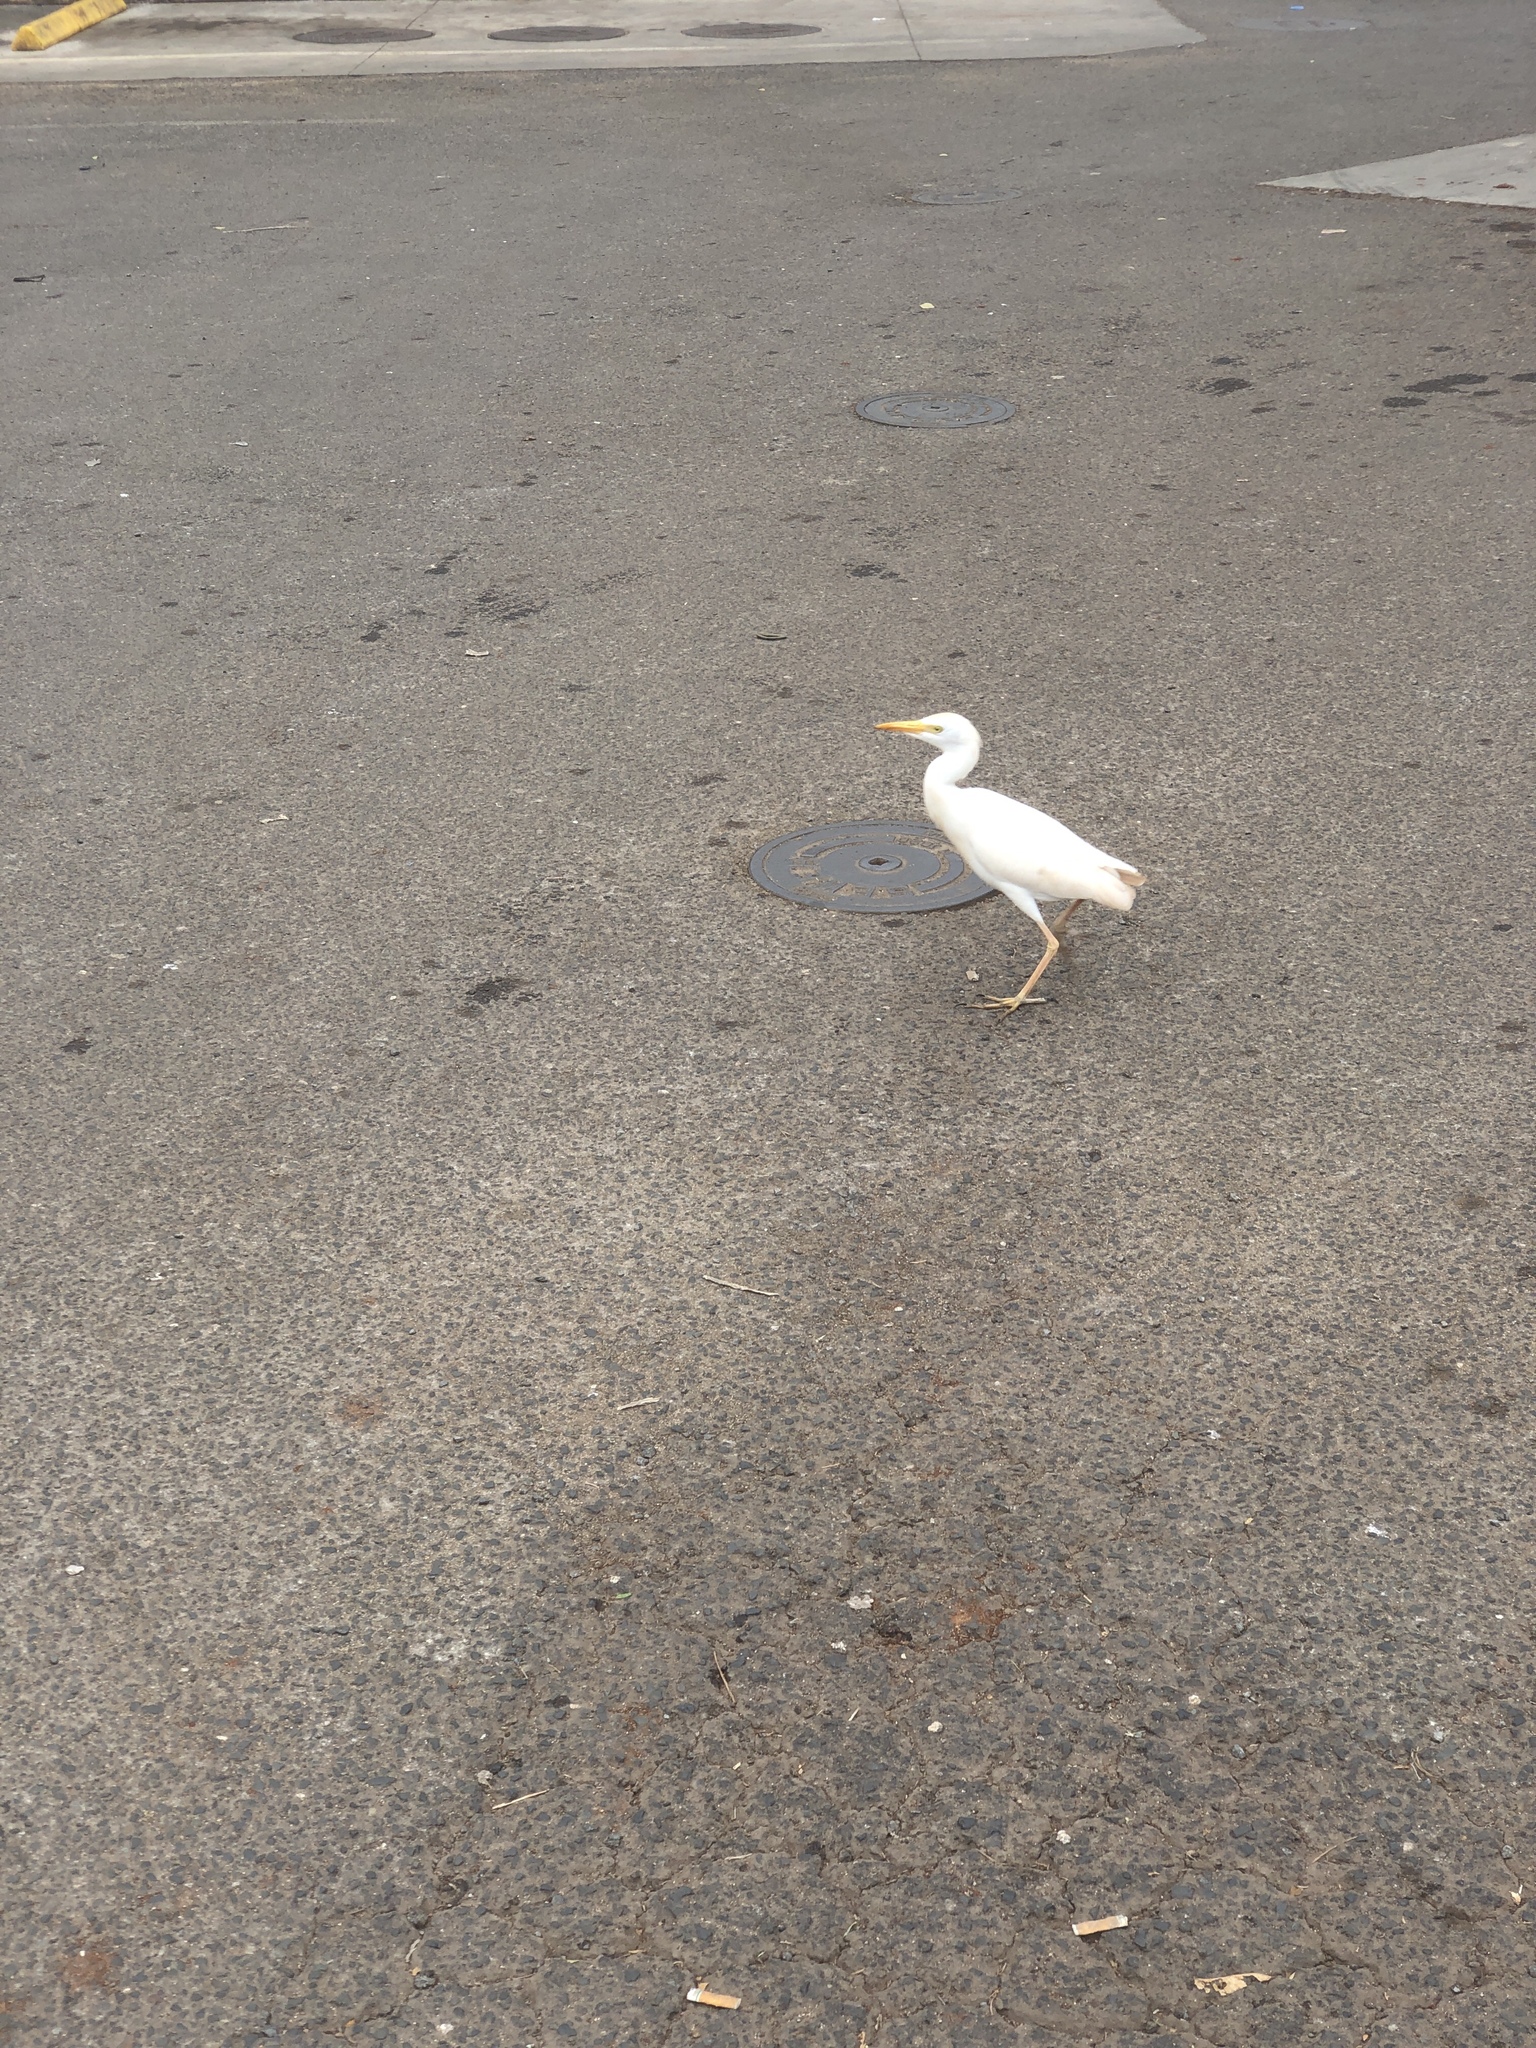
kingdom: Animalia
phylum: Chordata
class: Aves
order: Pelecaniformes
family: Ardeidae
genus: Bubulcus
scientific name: Bubulcus ibis
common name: Cattle egret
